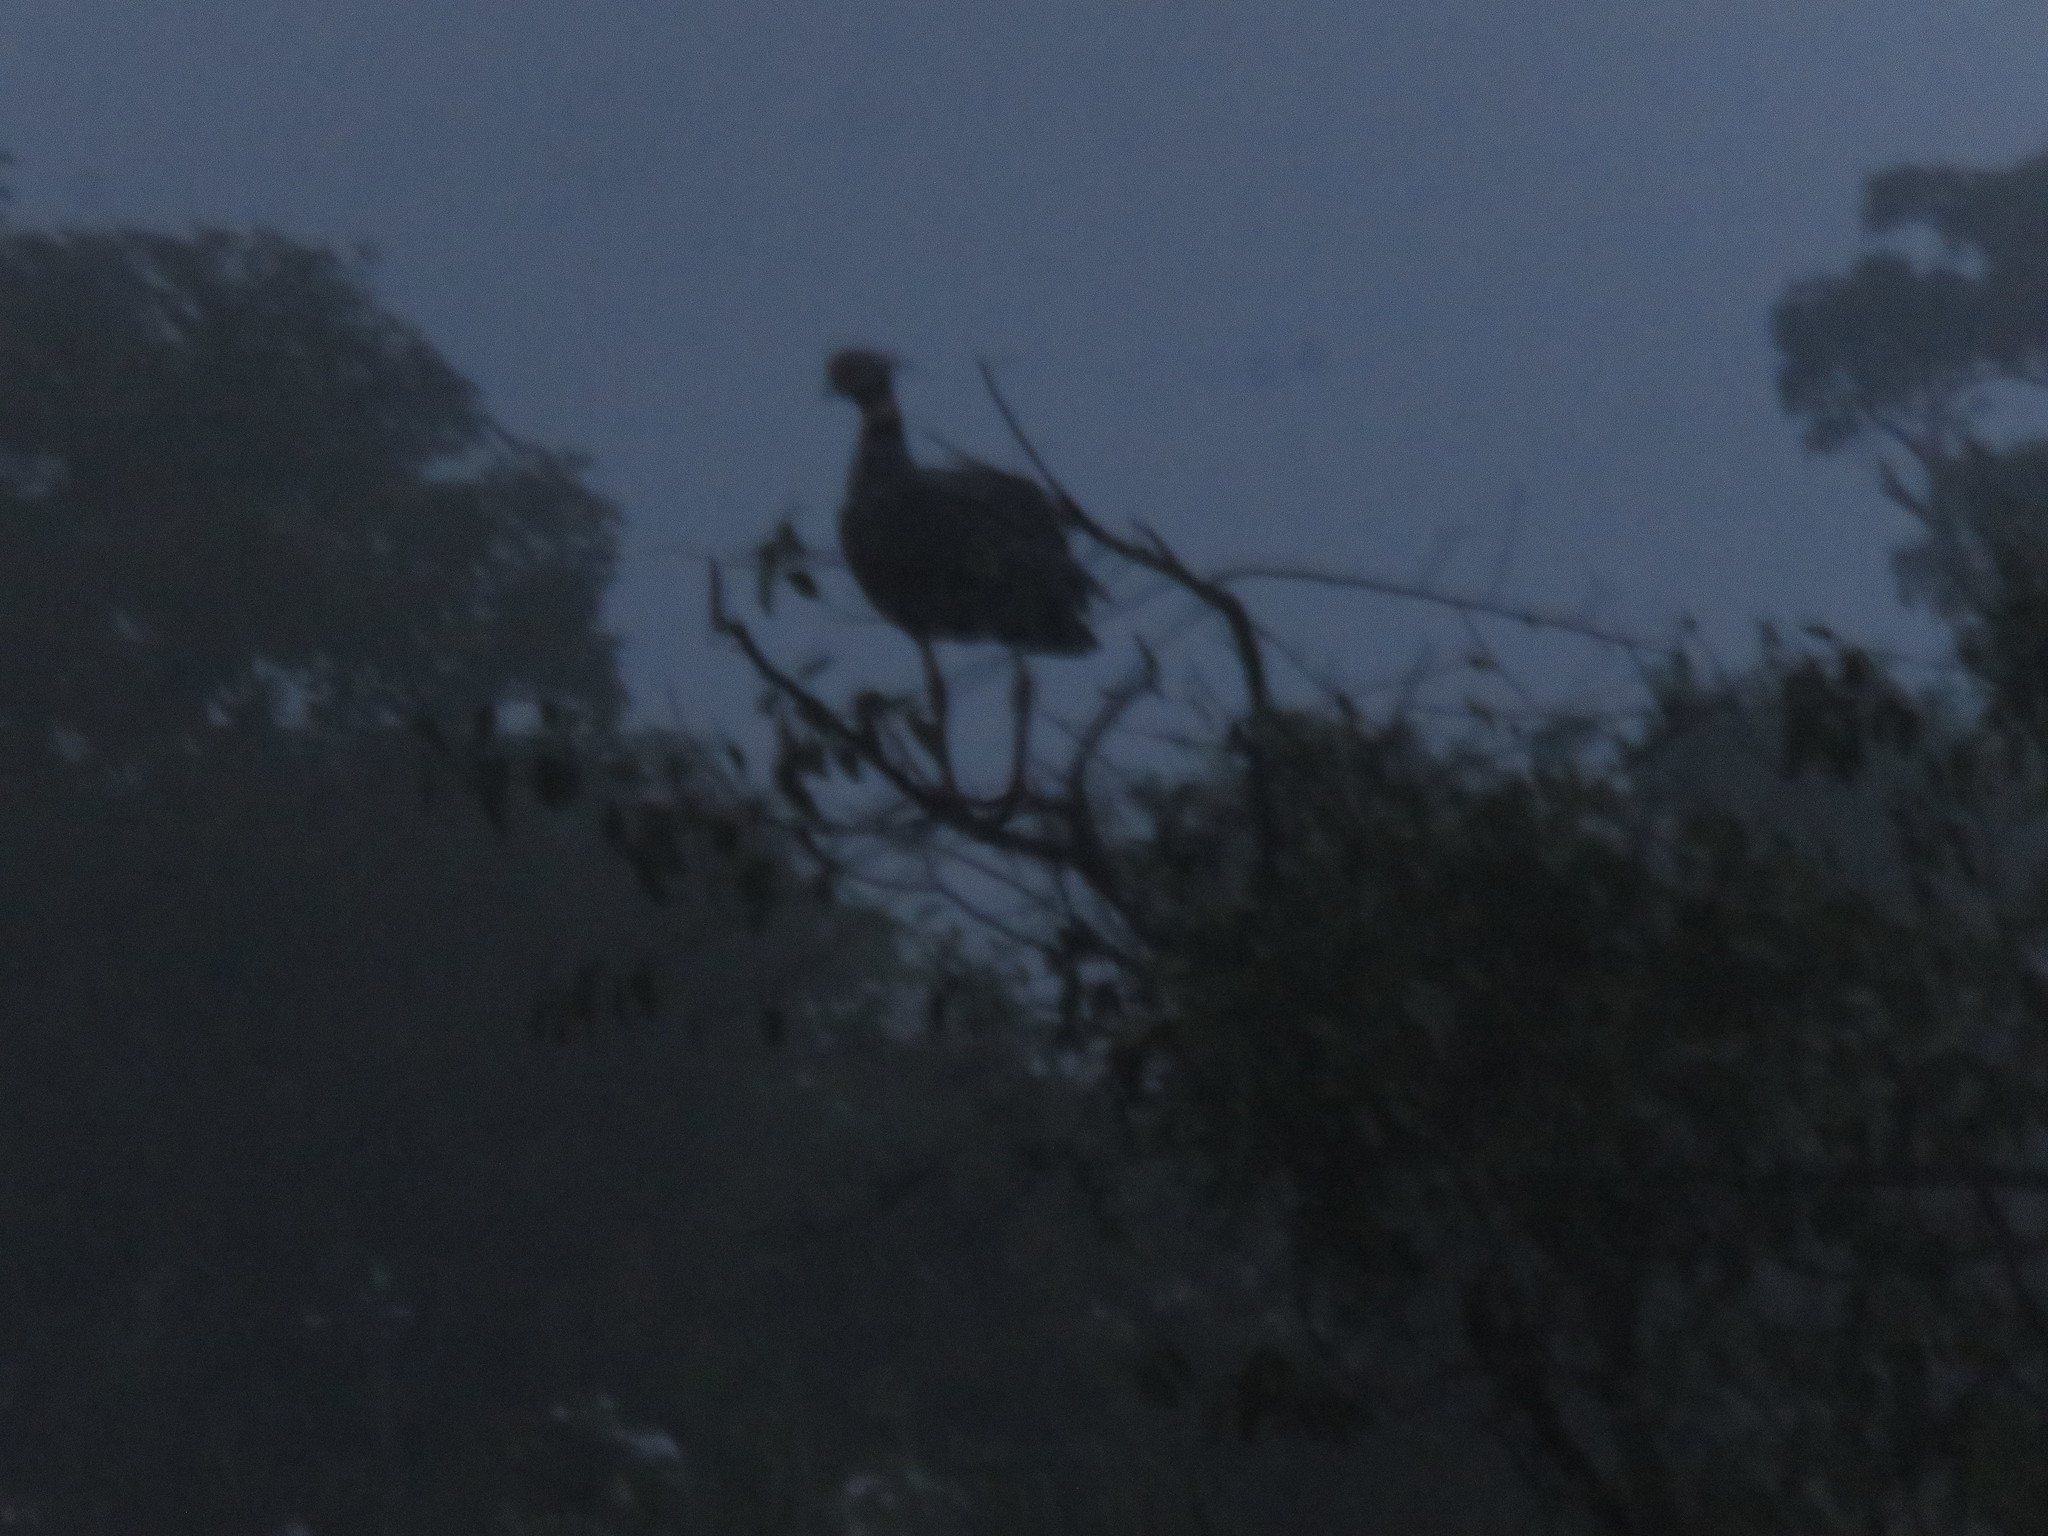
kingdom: Animalia
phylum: Chordata
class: Aves
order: Anseriformes
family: Anhimidae
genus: Chauna
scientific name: Chauna torquata
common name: Southern screamer
